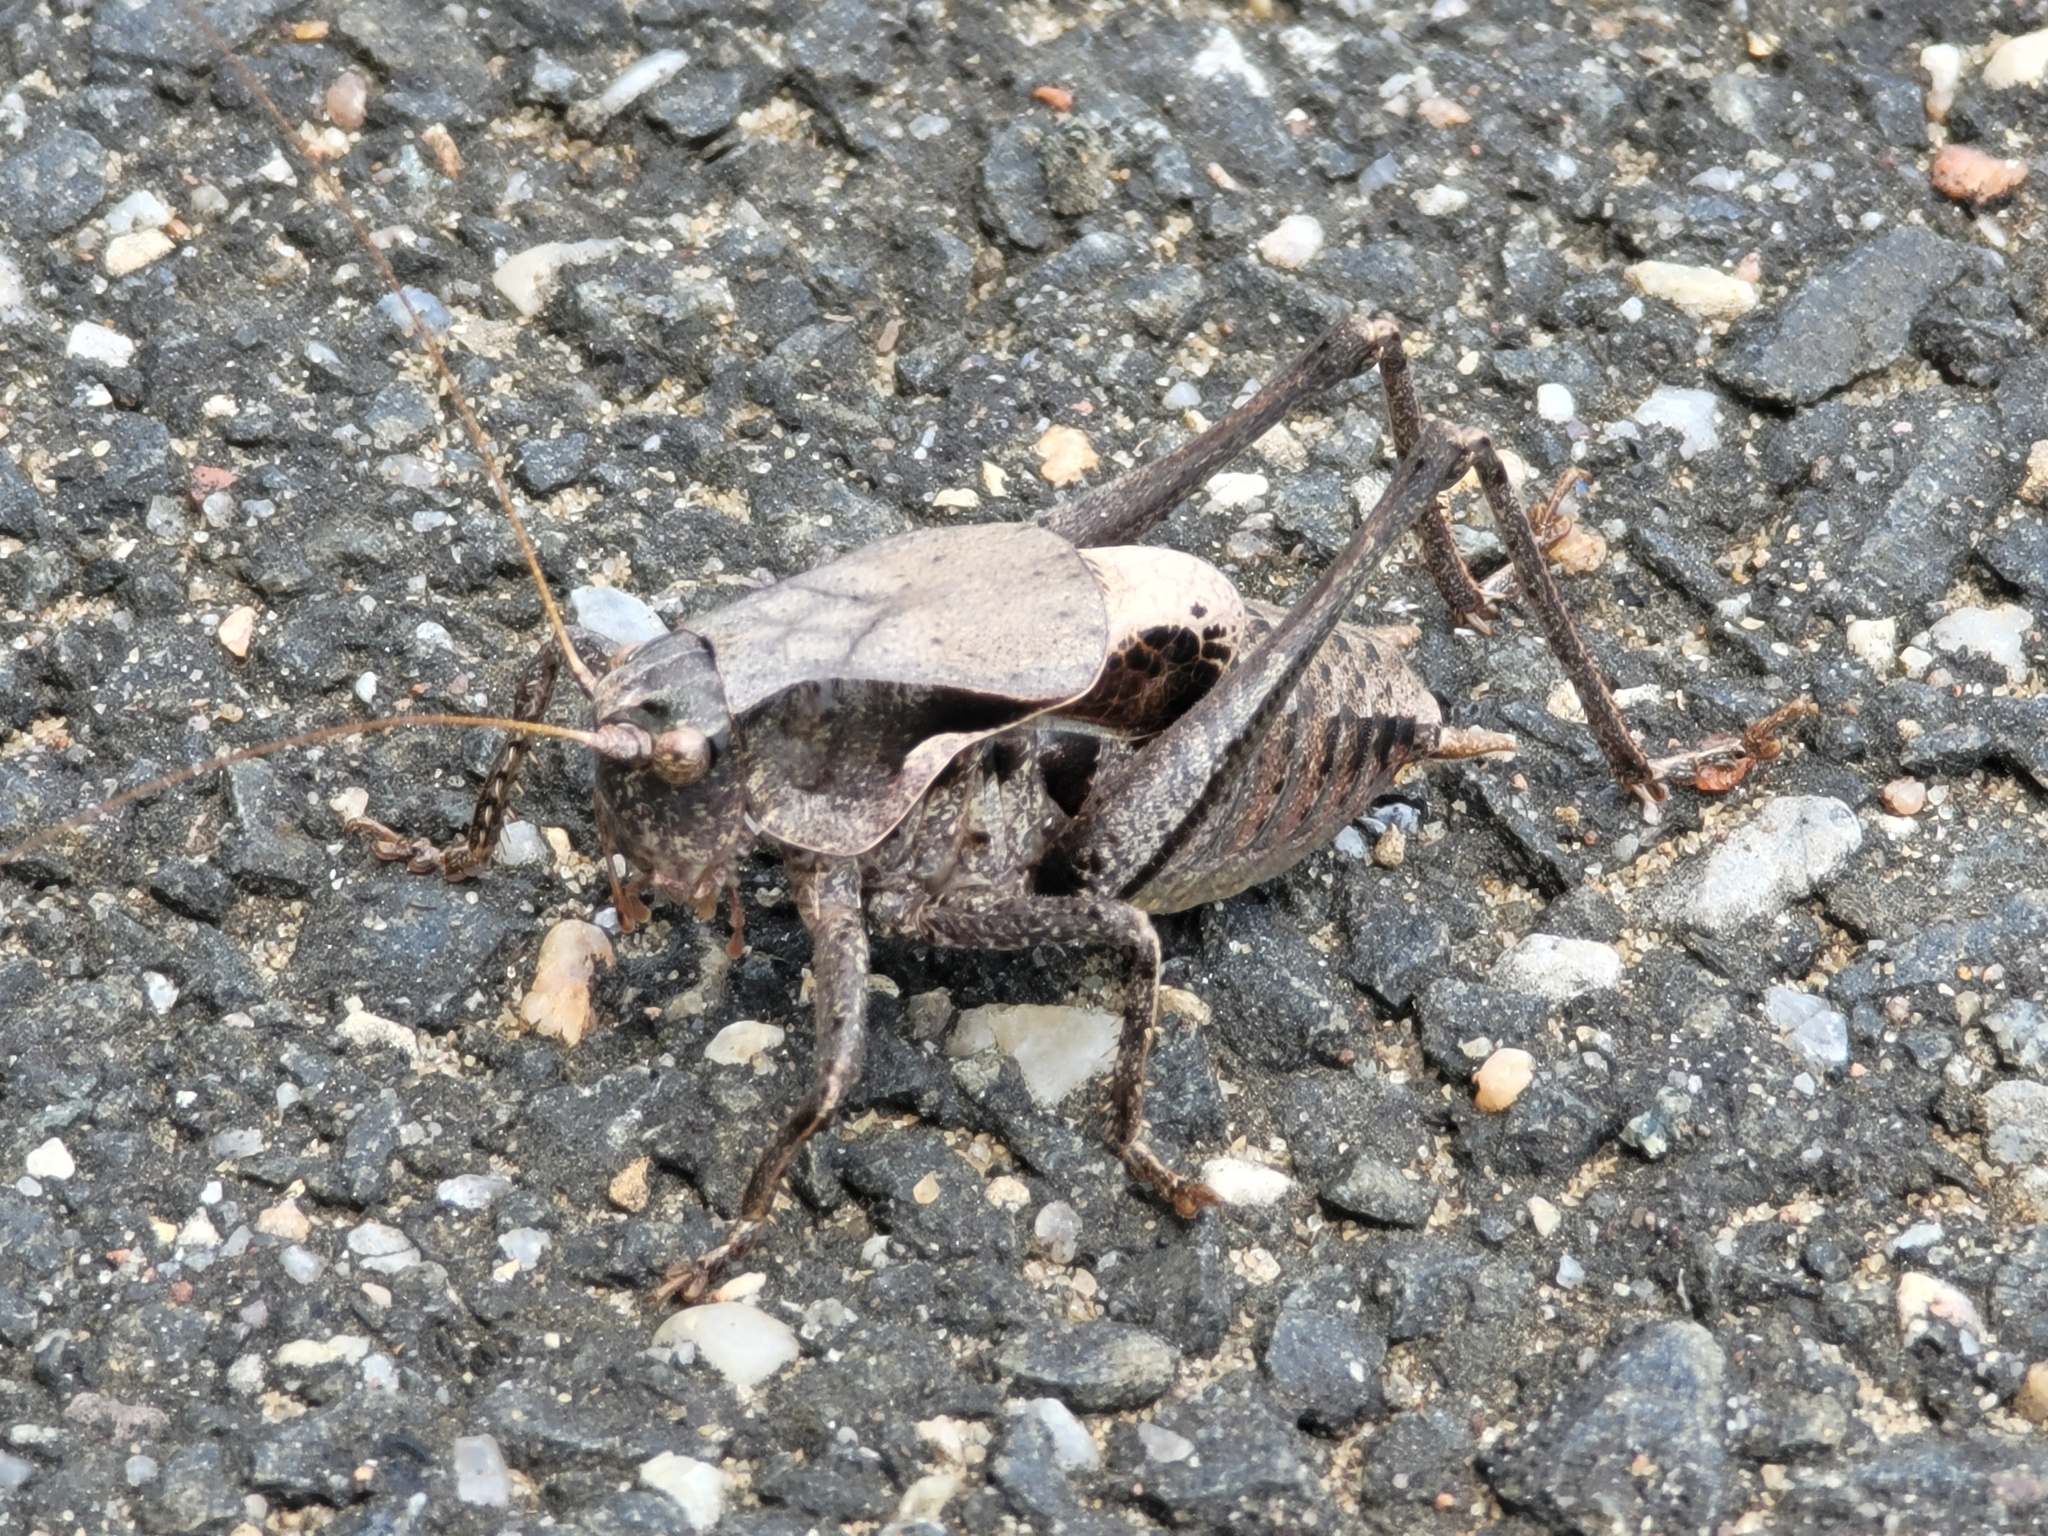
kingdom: Animalia
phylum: Arthropoda
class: Insecta
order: Orthoptera
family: Tettigoniidae
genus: Atlanticus
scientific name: Atlanticus testaceus
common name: Protean shieldback
